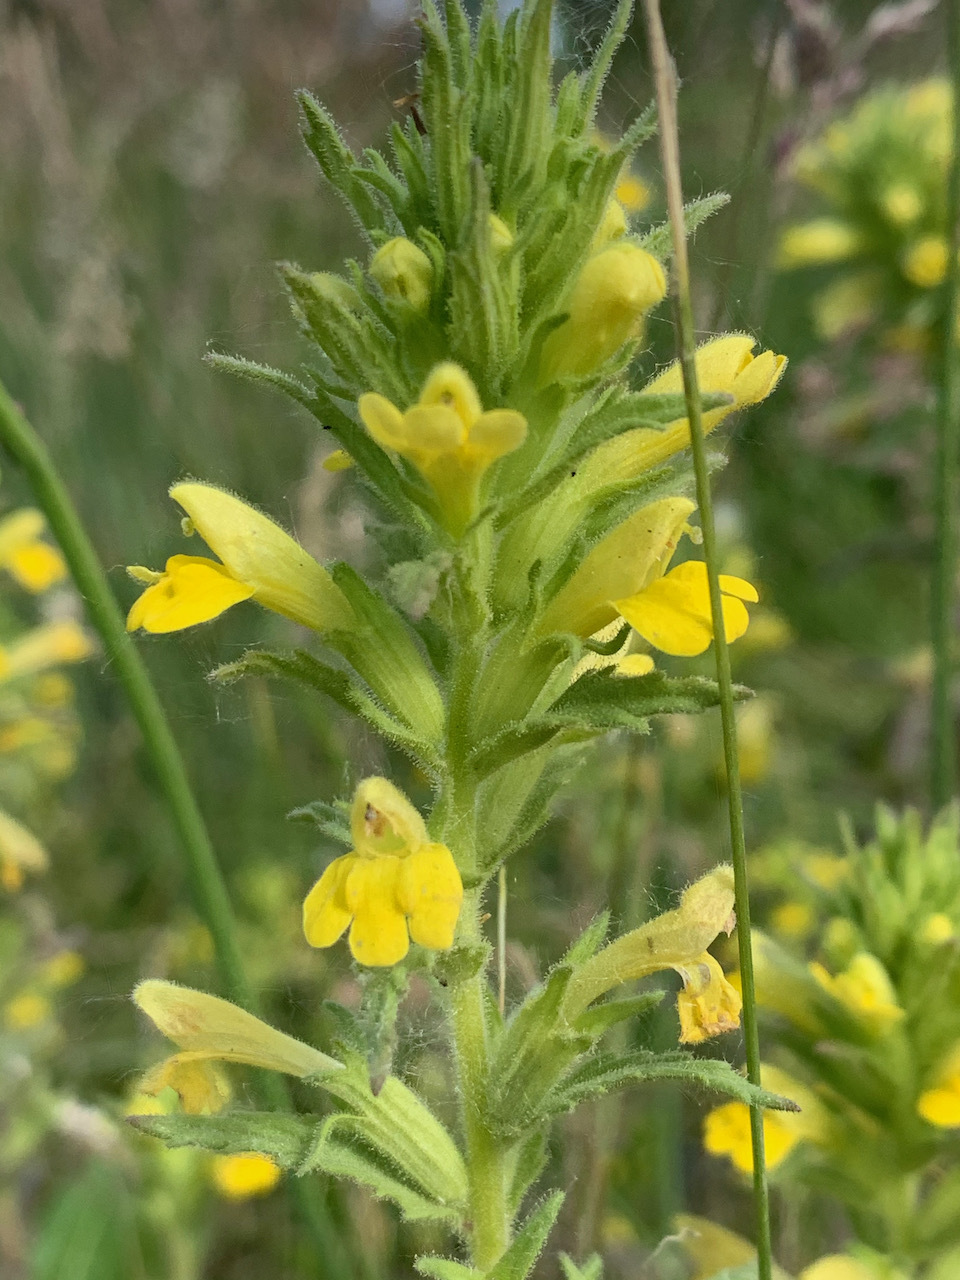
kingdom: Plantae
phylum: Tracheophyta
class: Magnoliopsida
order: Lamiales
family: Orobanchaceae
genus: Bellardia
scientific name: Bellardia viscosa
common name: Sticky parentucellia
